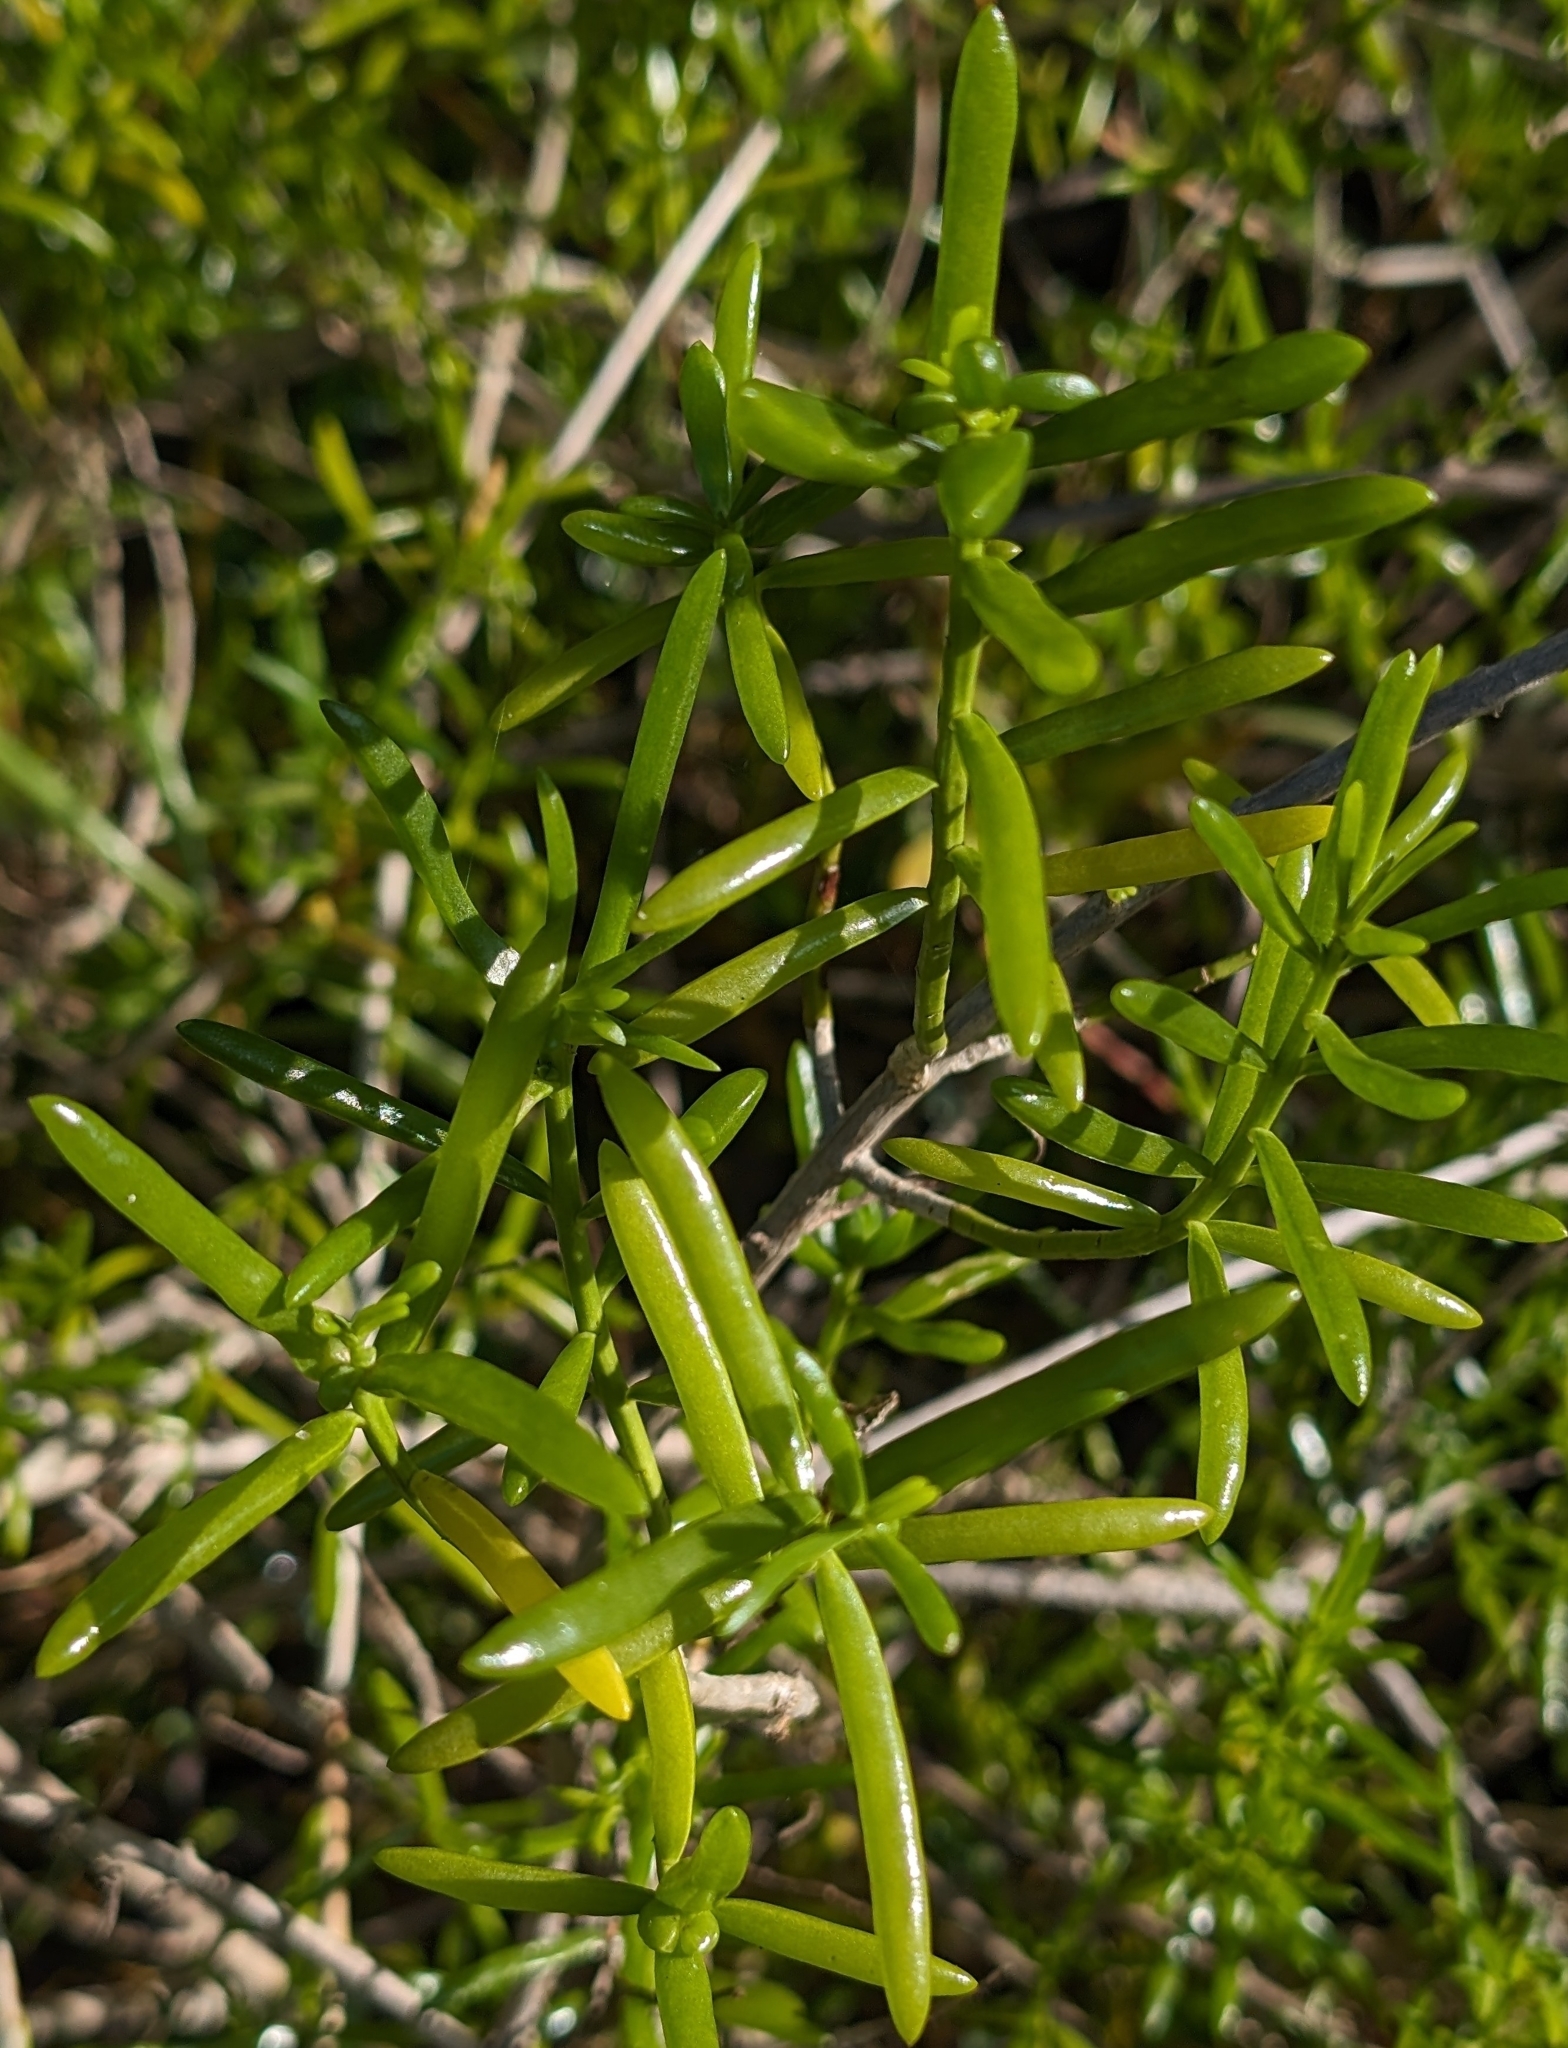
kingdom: Plantae
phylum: Tracheophyta
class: Magnoliopsida
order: Brassicales
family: Bataceae
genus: Batis
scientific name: Batis maritima
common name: Turtleweed
